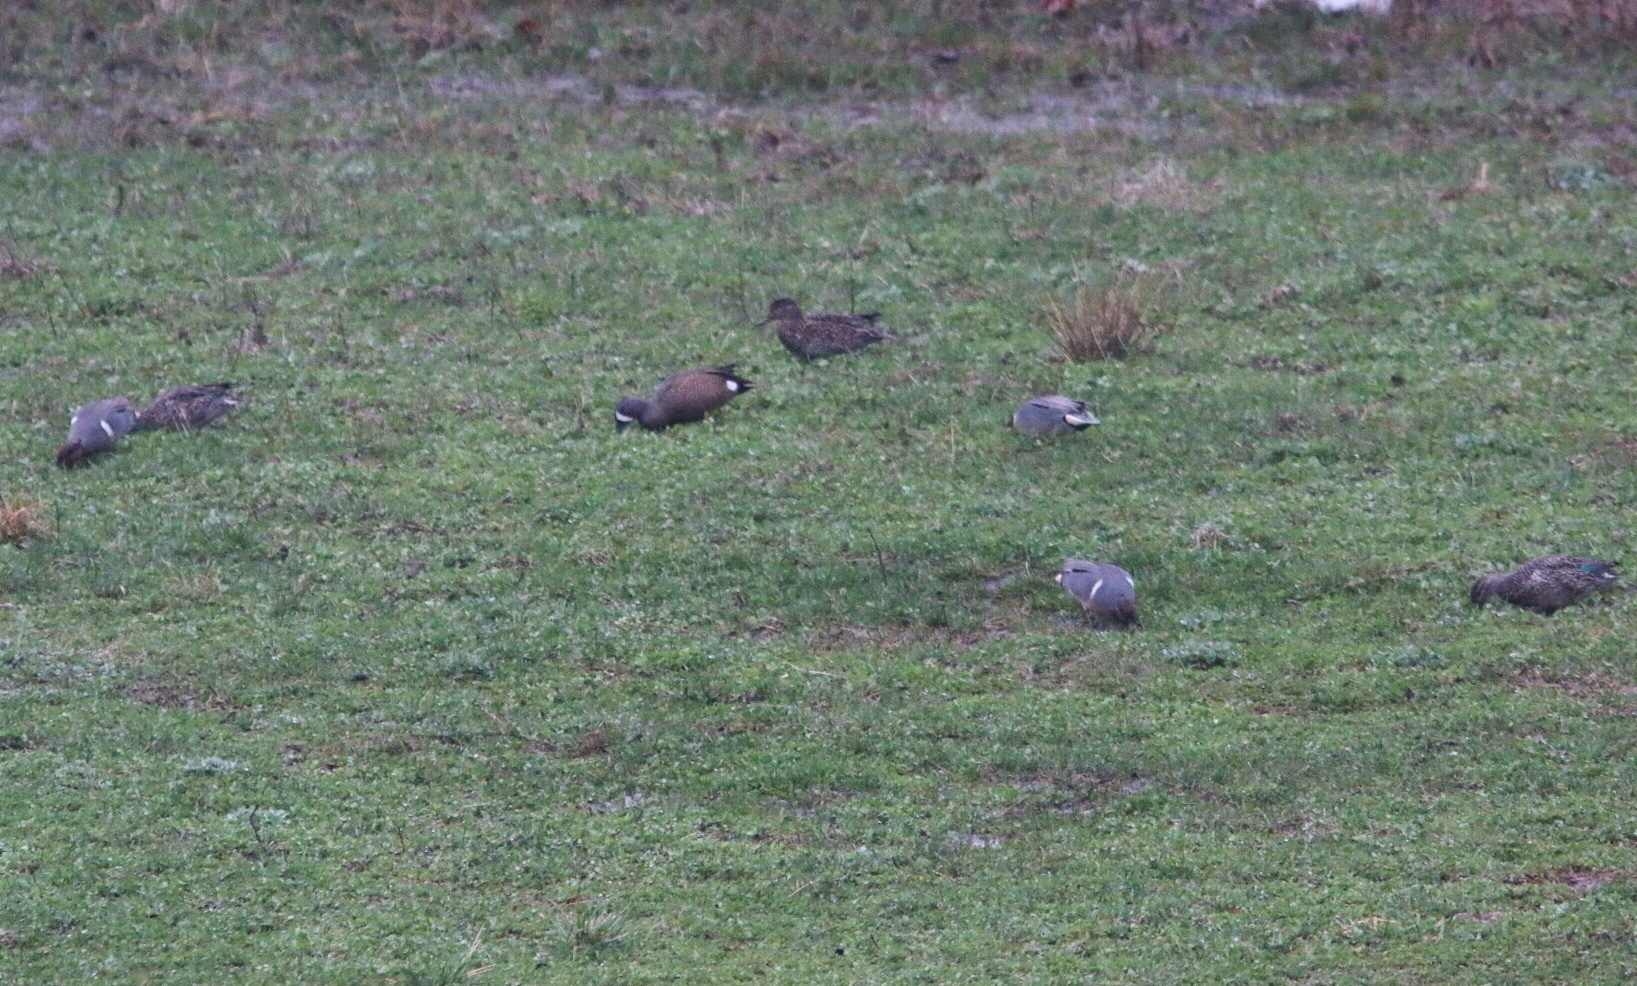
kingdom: Animalia
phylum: Chordata
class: Aves
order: Anseriformes
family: Anatidae
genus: Spatula
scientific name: Spatula discors
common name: Blue-winged teal
